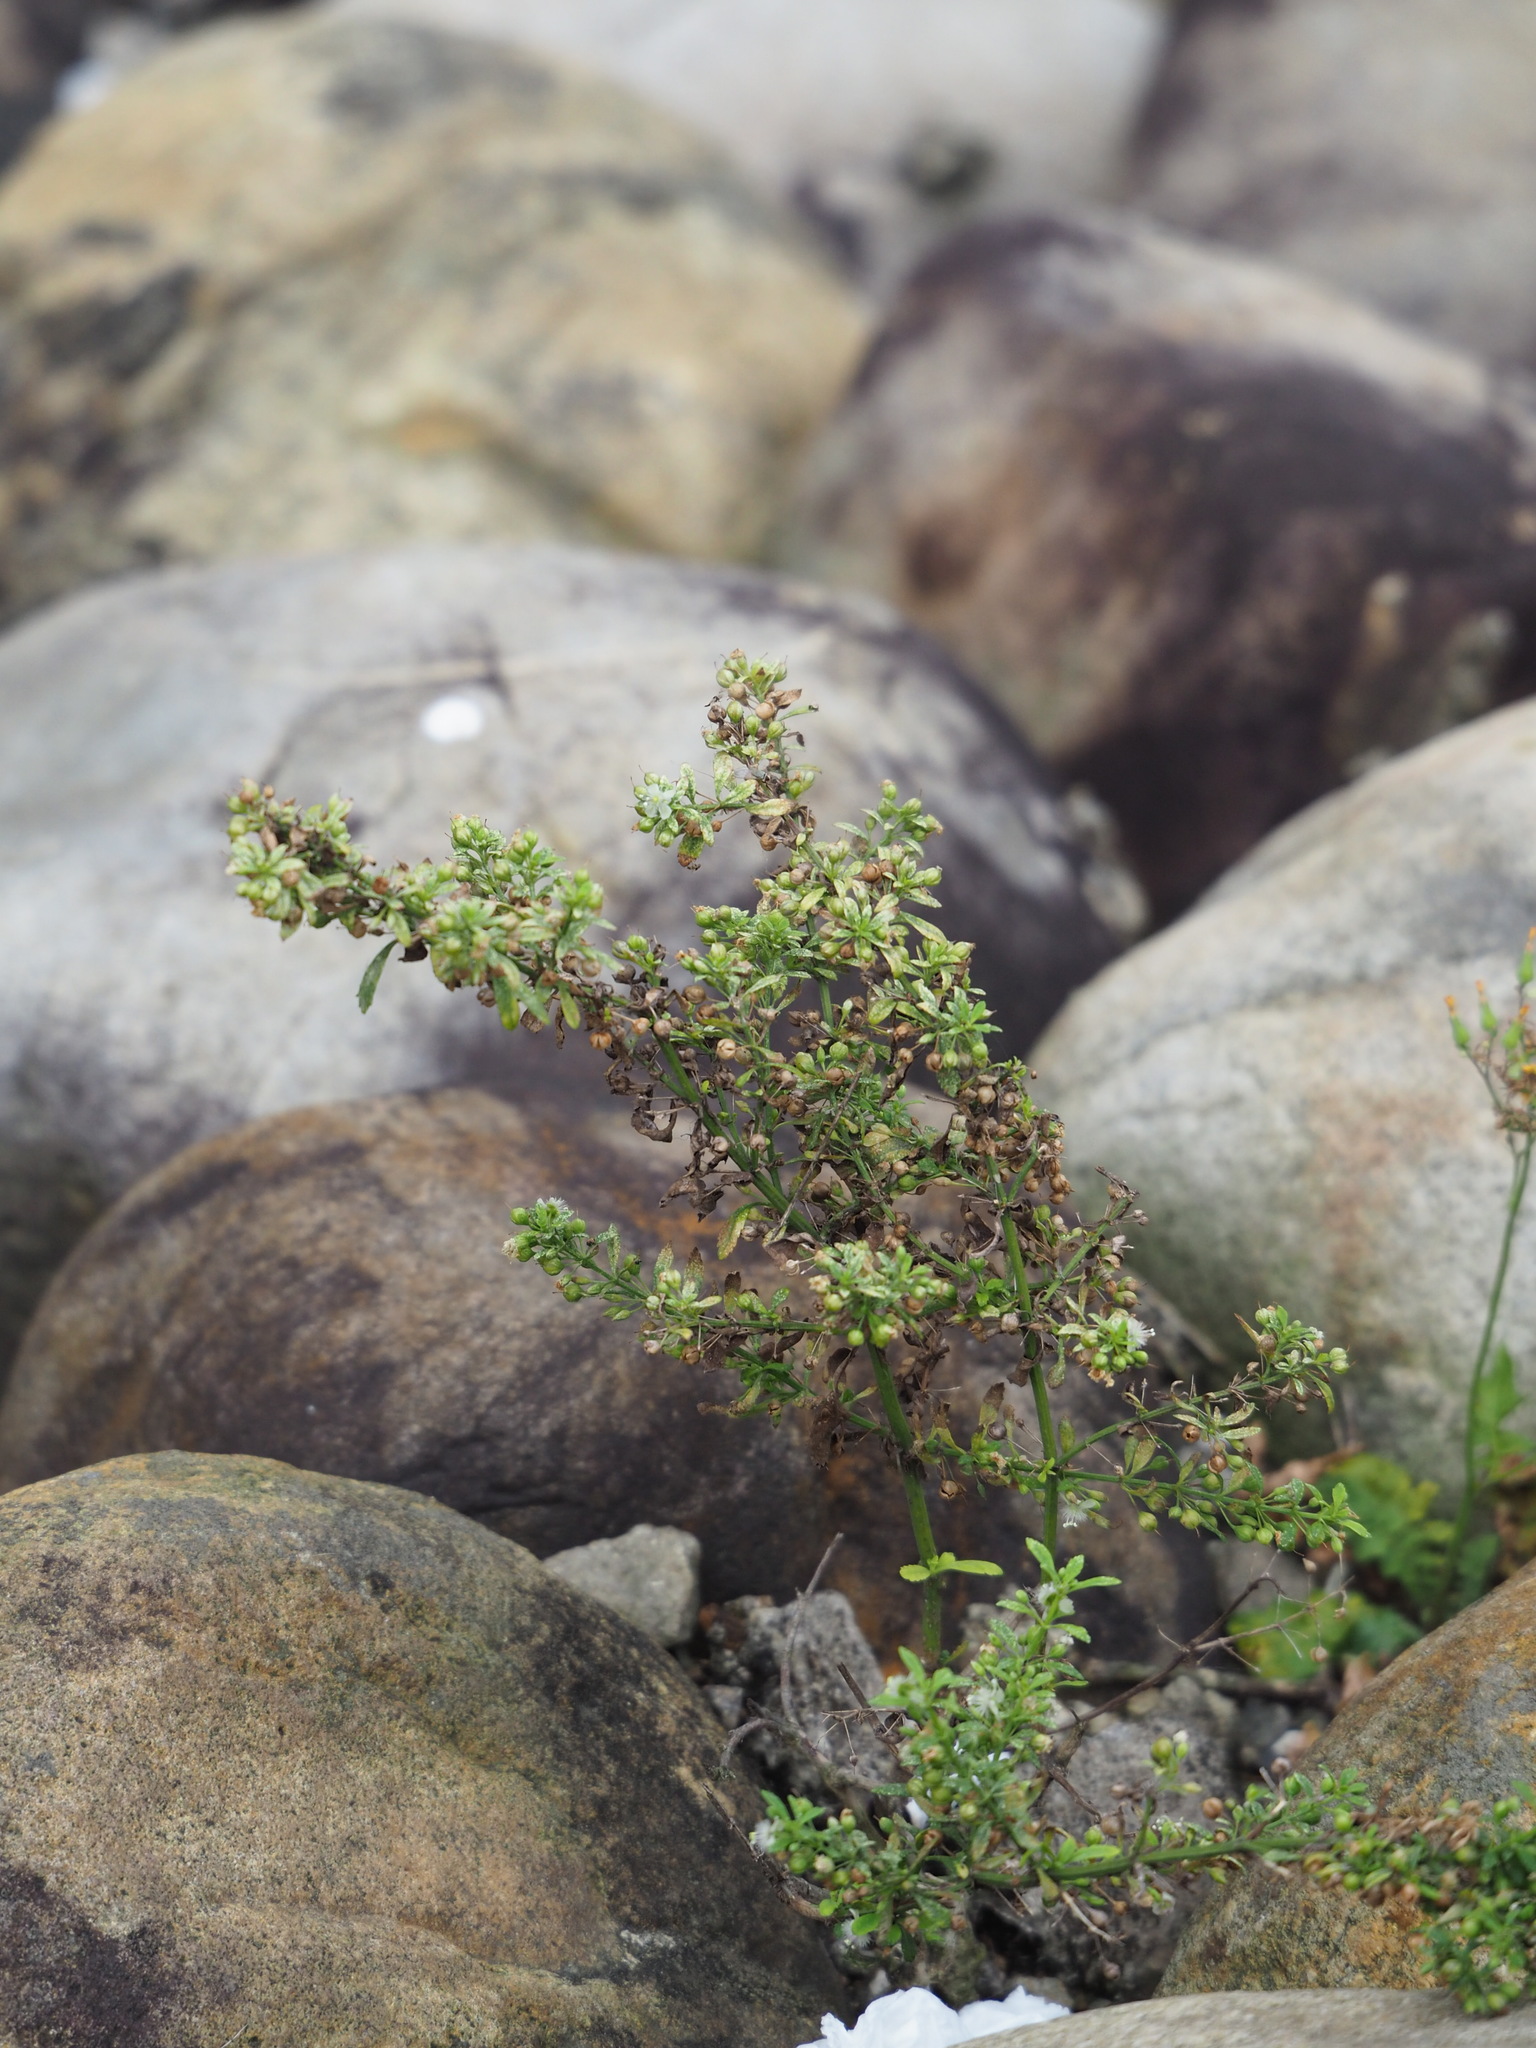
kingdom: Plantae
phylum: Tracheophyta
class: Magnoliopsida
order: Lamiales
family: Plantaginaceae
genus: Scoparia
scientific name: Scoparia dulcis
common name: Scoparia-weed
